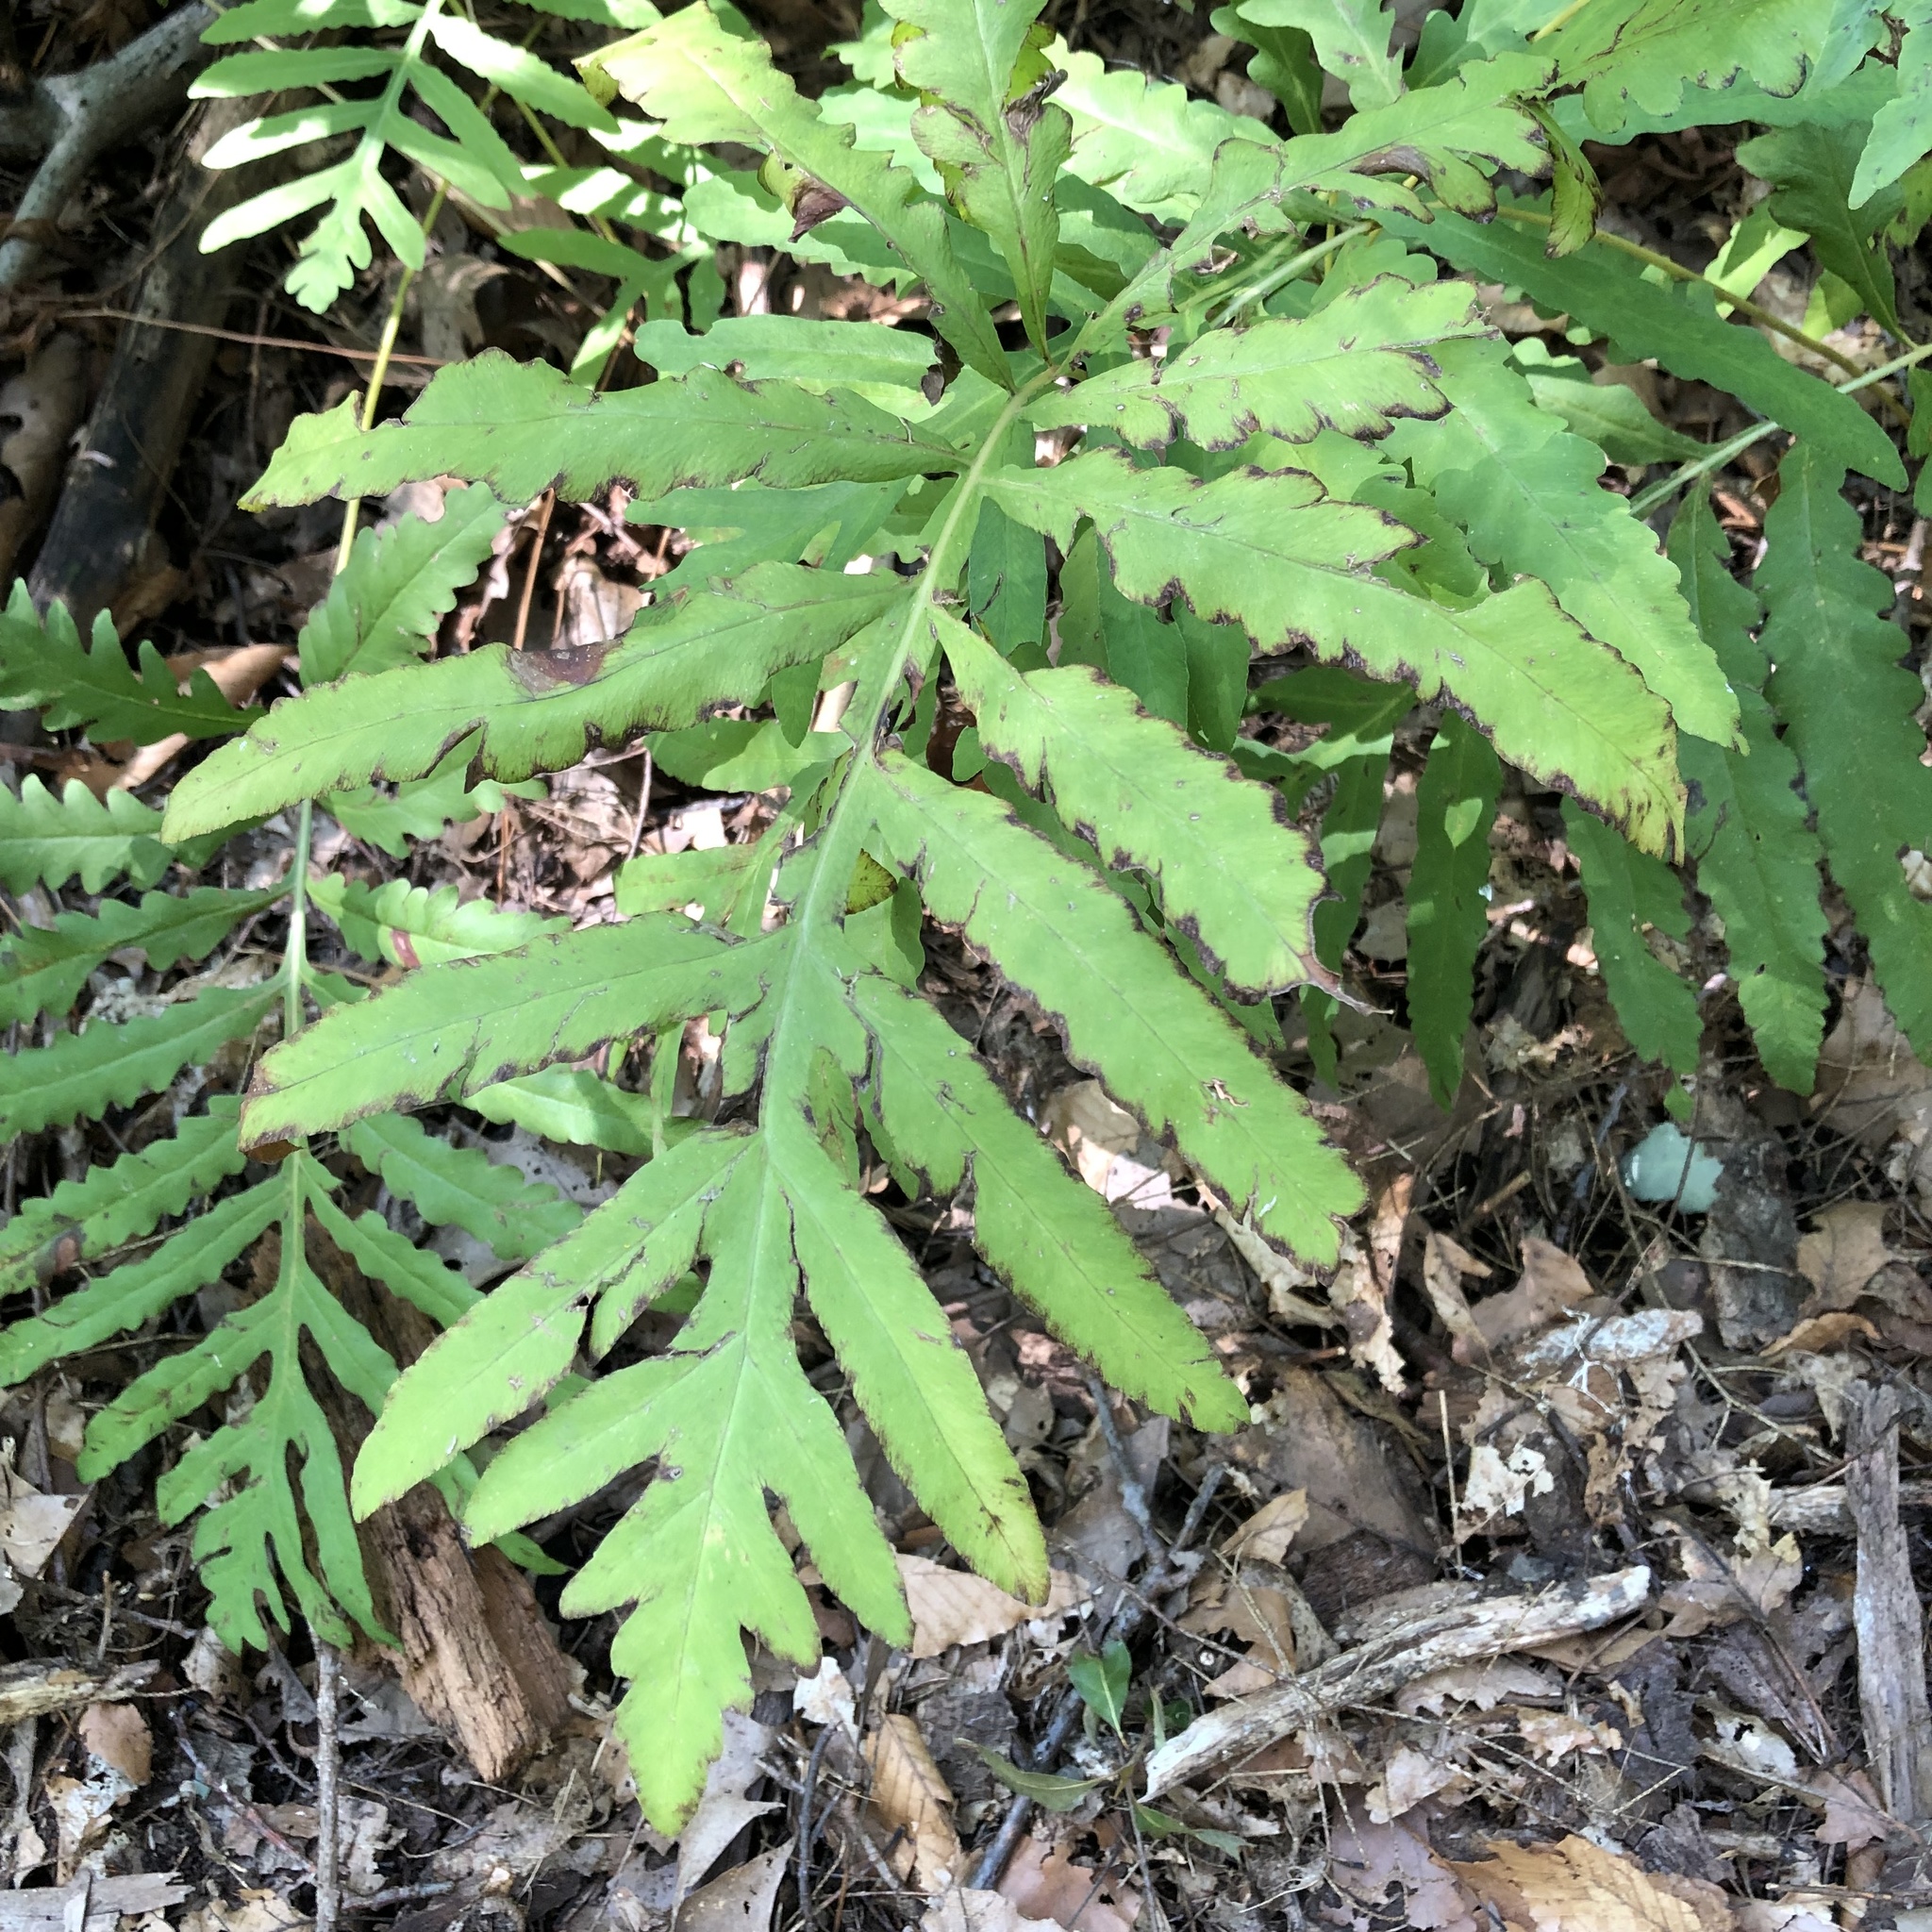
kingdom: Plantae
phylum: Tracheophyta
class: Polypodiopsida
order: Polypodiales
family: Onocleaceae
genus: Onoclea
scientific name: Onoclea sensibilis
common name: Sensitive fern
